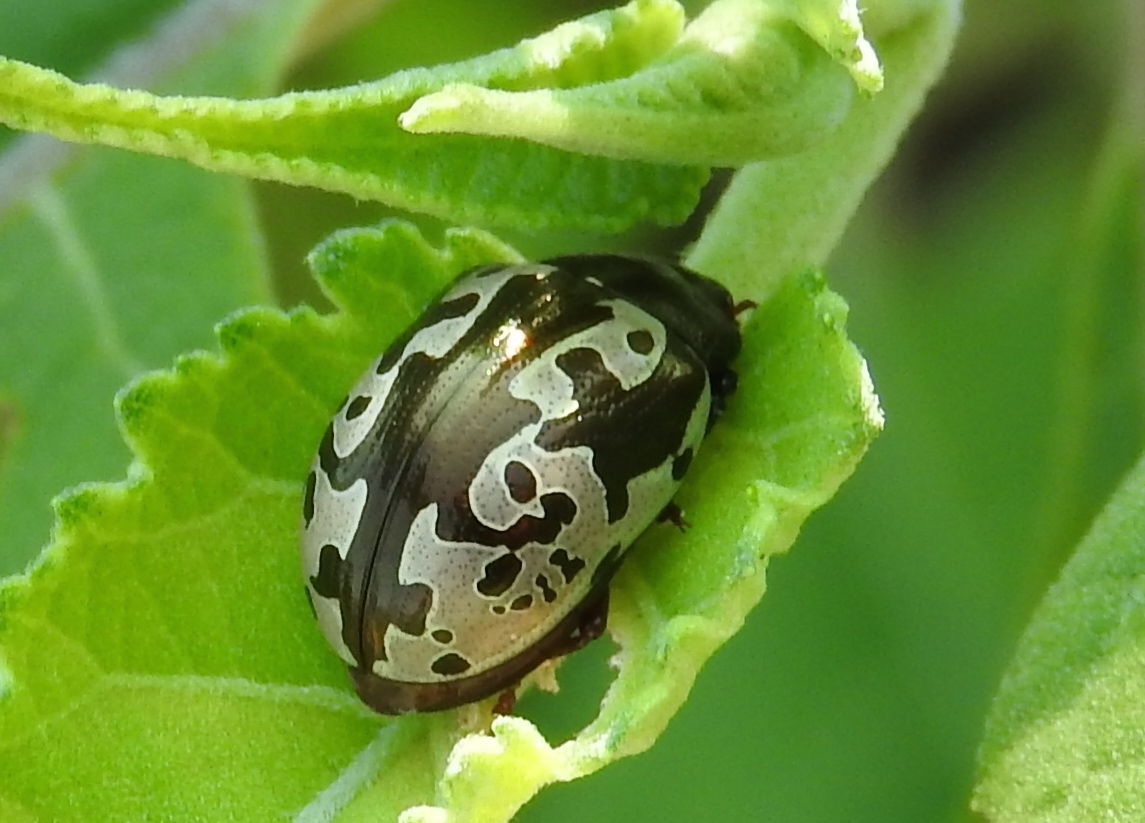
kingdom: Animalia
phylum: Arthropoda
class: Insecta
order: Coleoptera
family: Chrysomelidae
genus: Calligrapha
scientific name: Calligrapha intermedia
